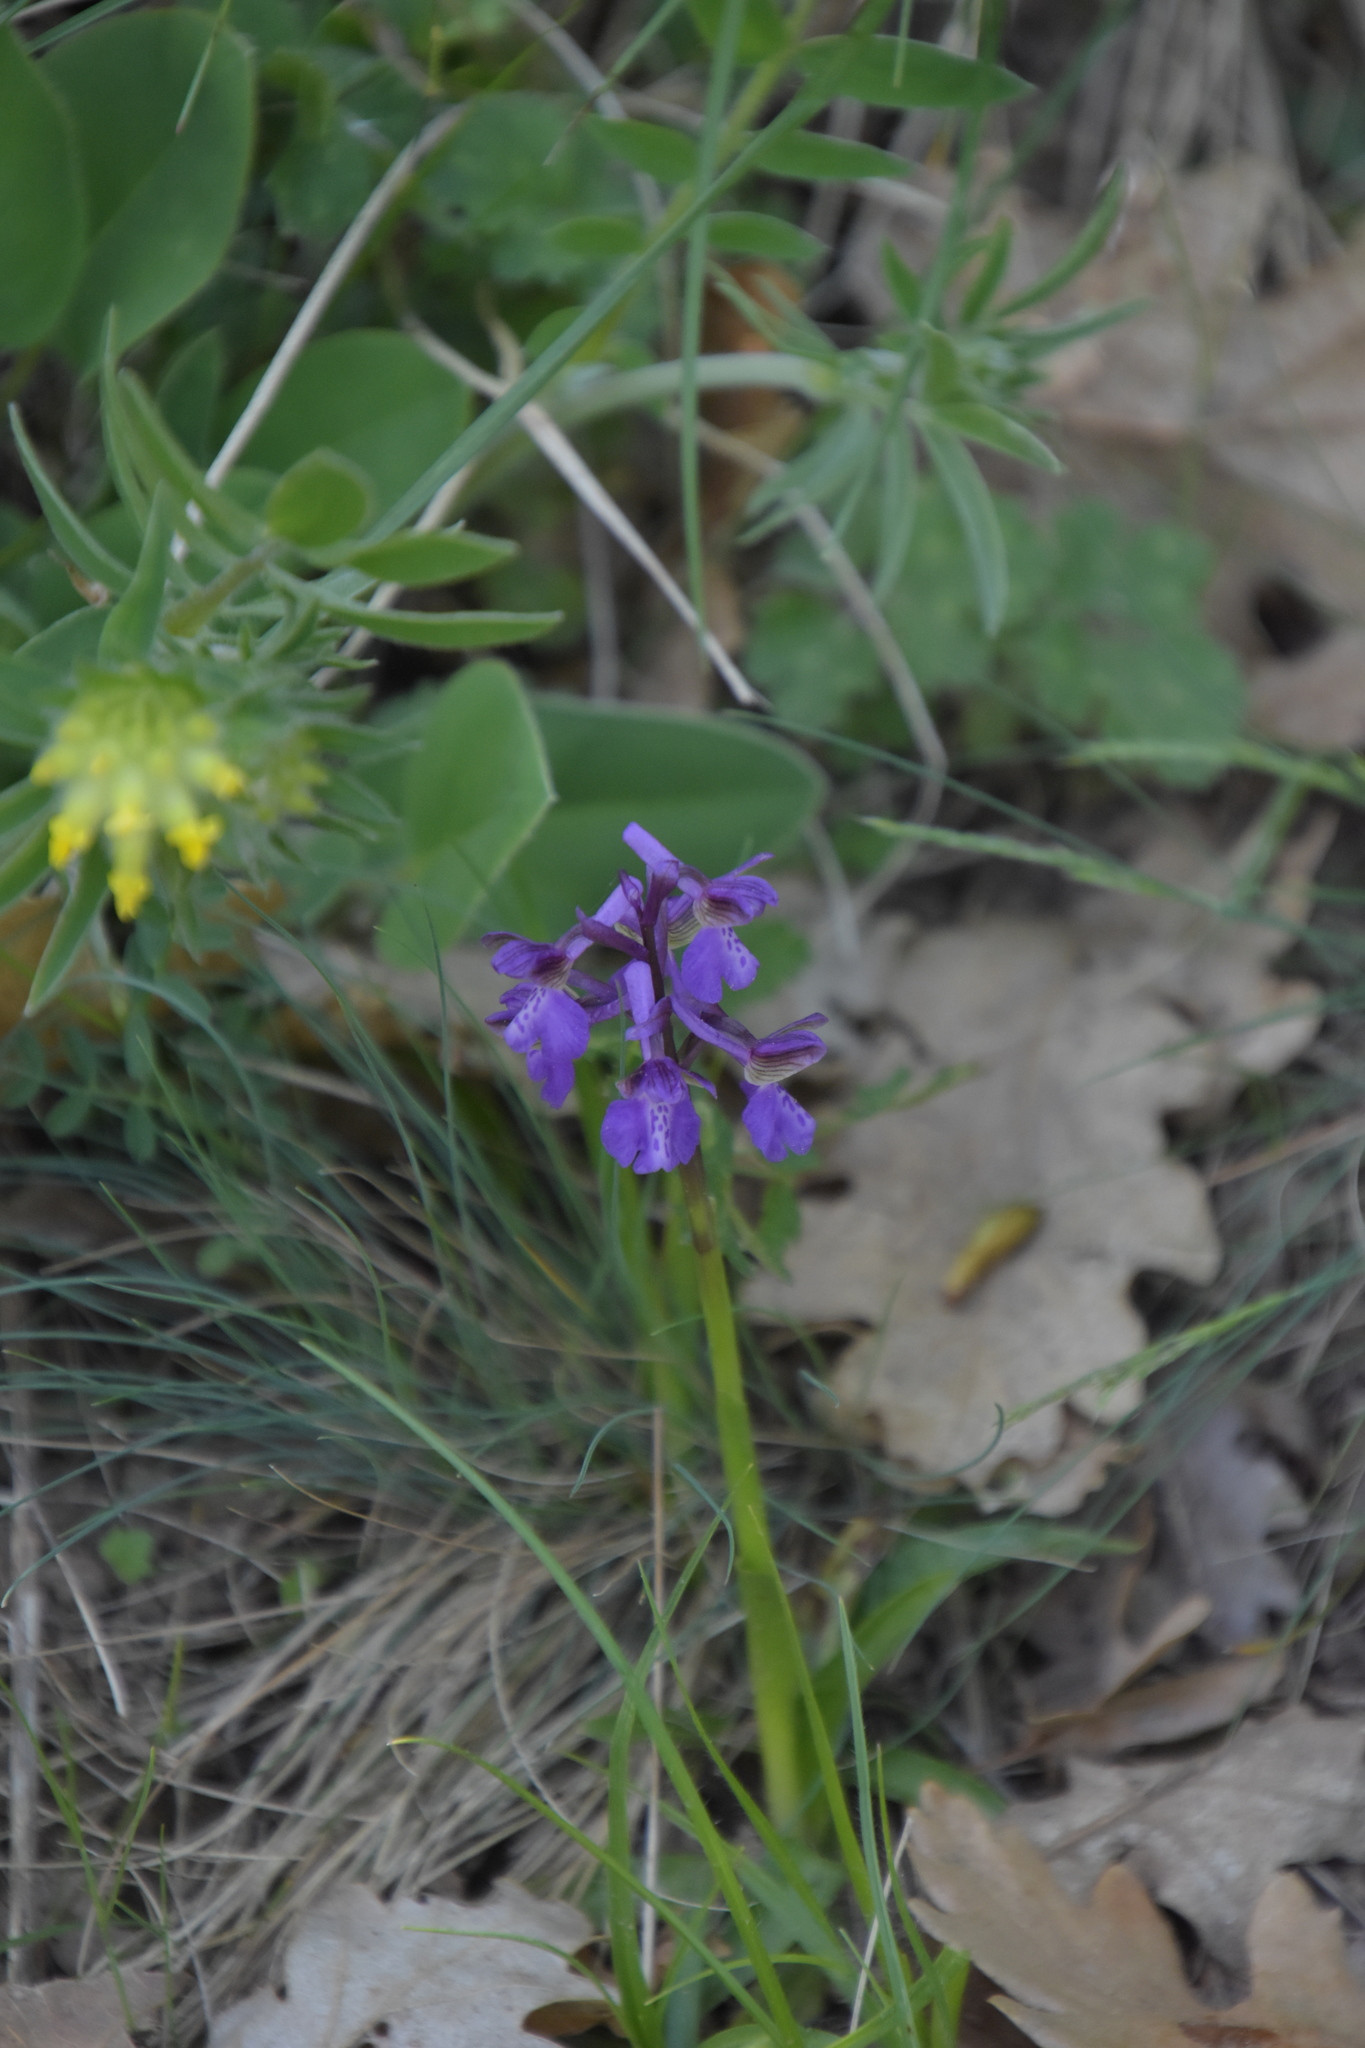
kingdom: Plantae
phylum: Tracheophyta
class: Liliopsida
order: Asparagales
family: Orchidaceae
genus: Anacamptis
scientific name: Anacamptis morio
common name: Green-winged orchid
